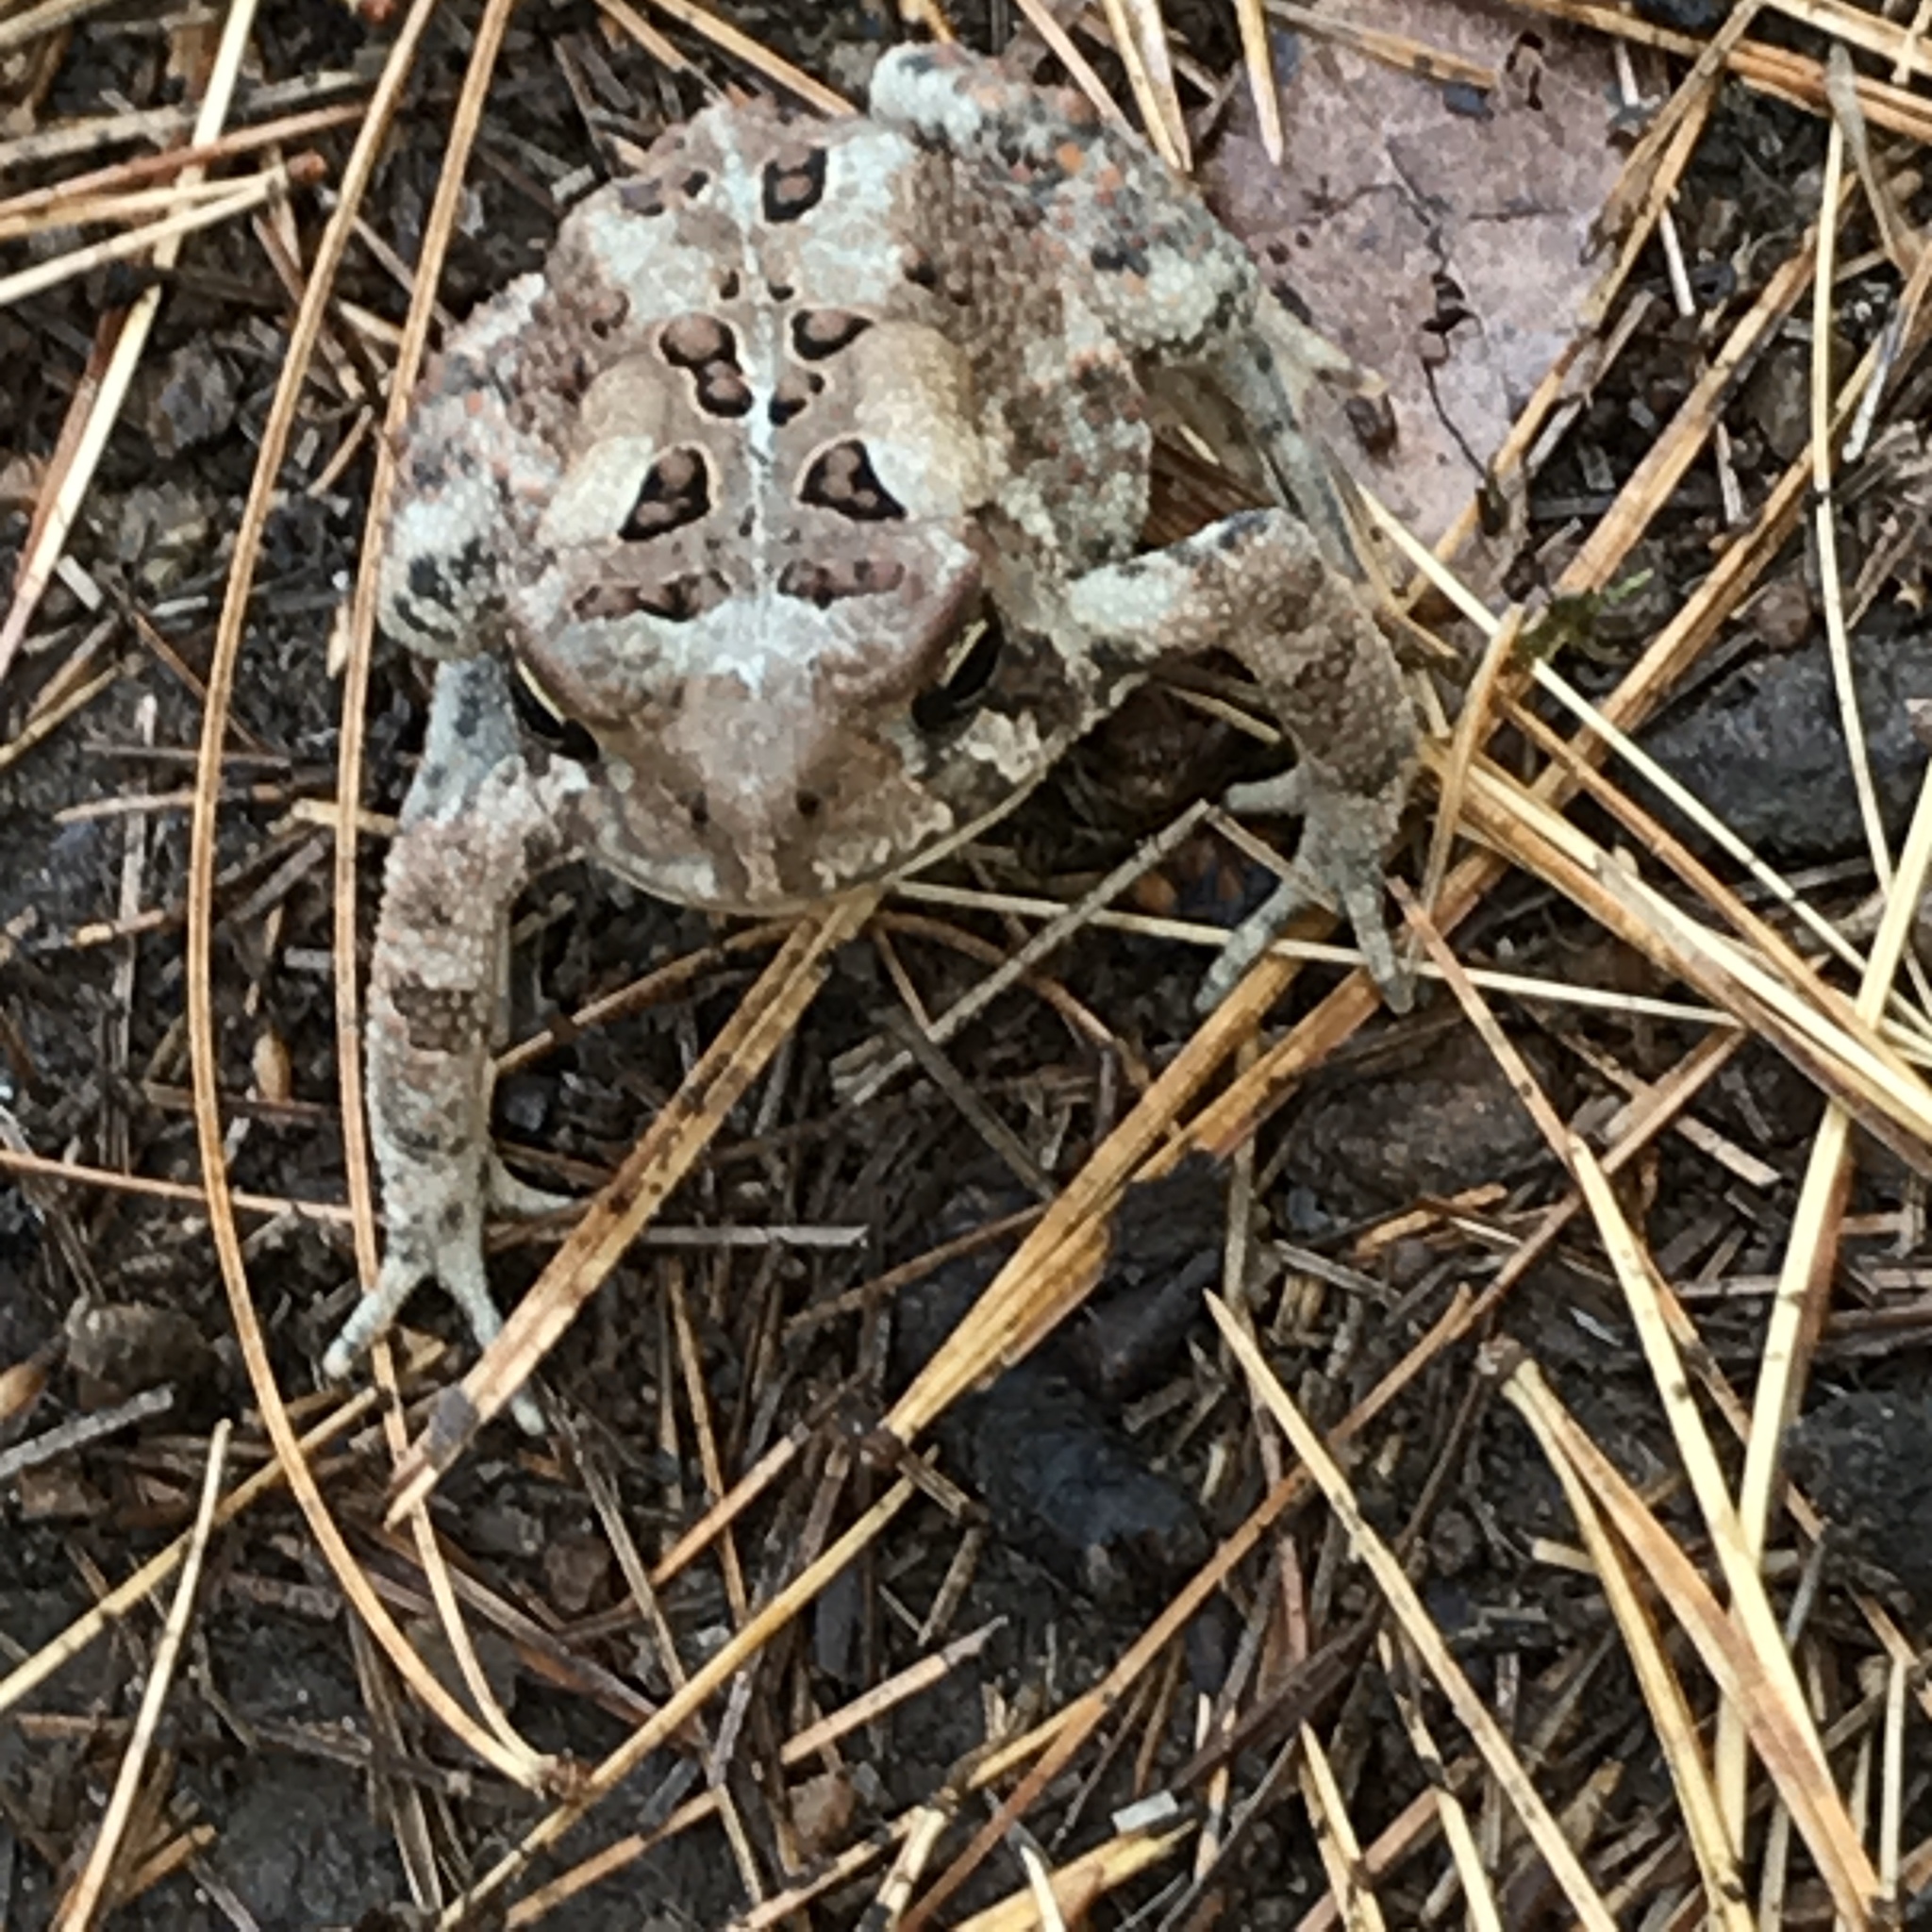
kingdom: Animalia
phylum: Chordata
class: Amphibia
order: Anura
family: Bufonidae
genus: Anaxyrus
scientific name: Anaxyrus americanus
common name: American toad
